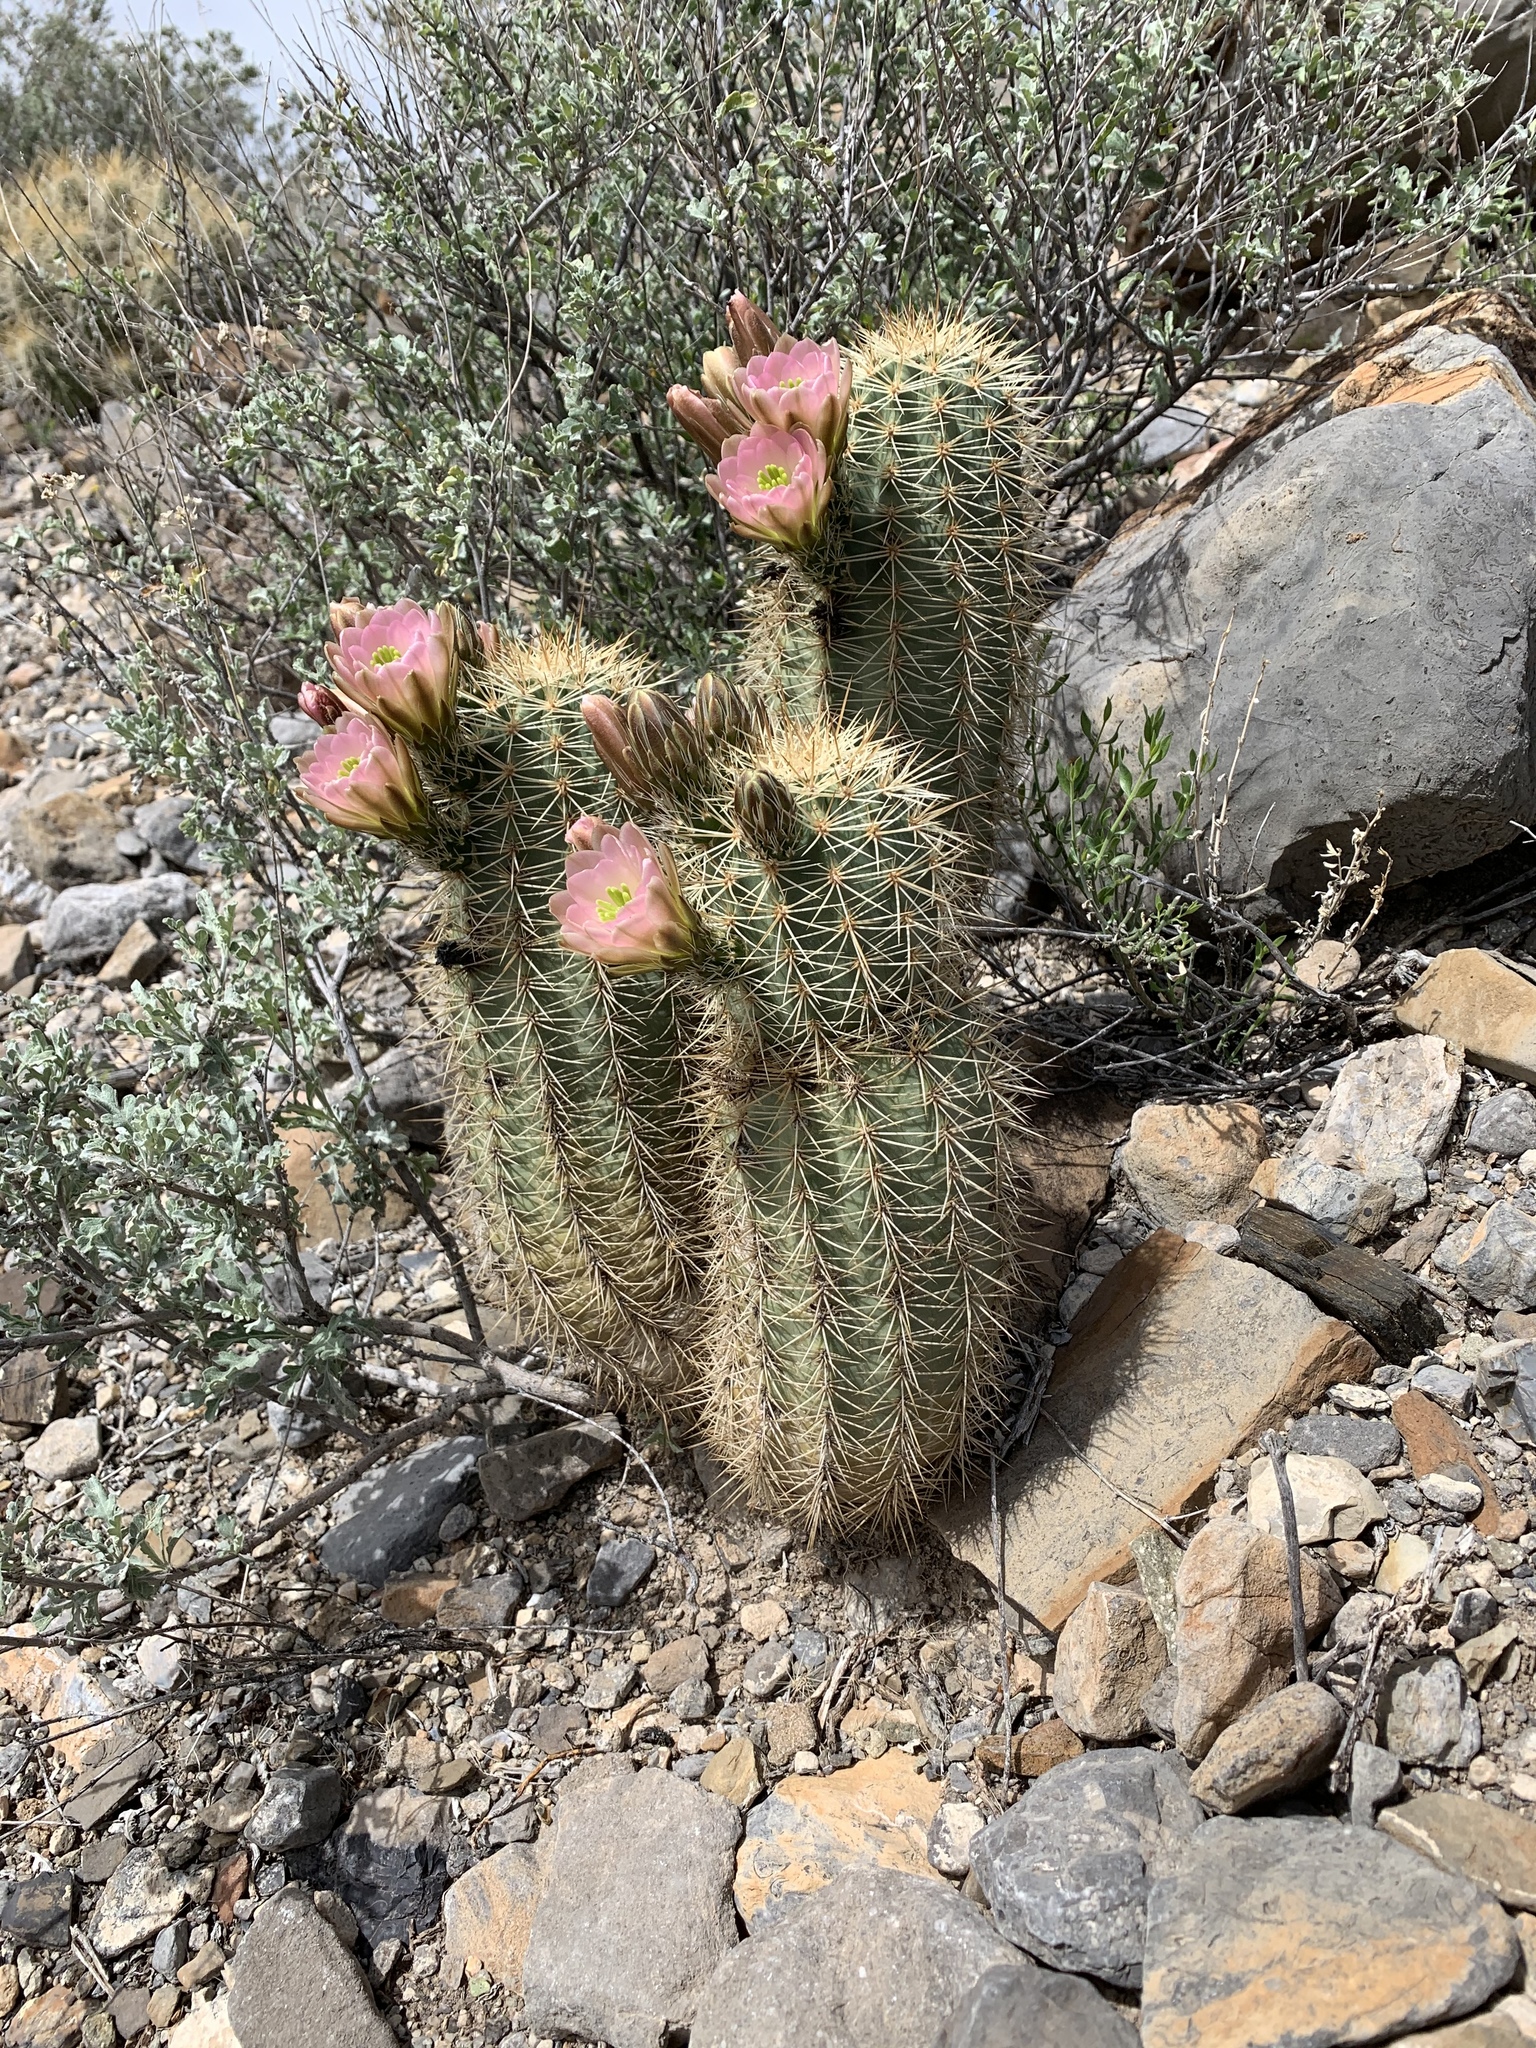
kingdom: Plantae
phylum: Tracheophyta
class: Magnoliopsida
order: Caryophyllales
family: Cactaceae
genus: Echinocereus
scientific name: Echinocereus coccineus
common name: Scarlet hedgehog cactus
